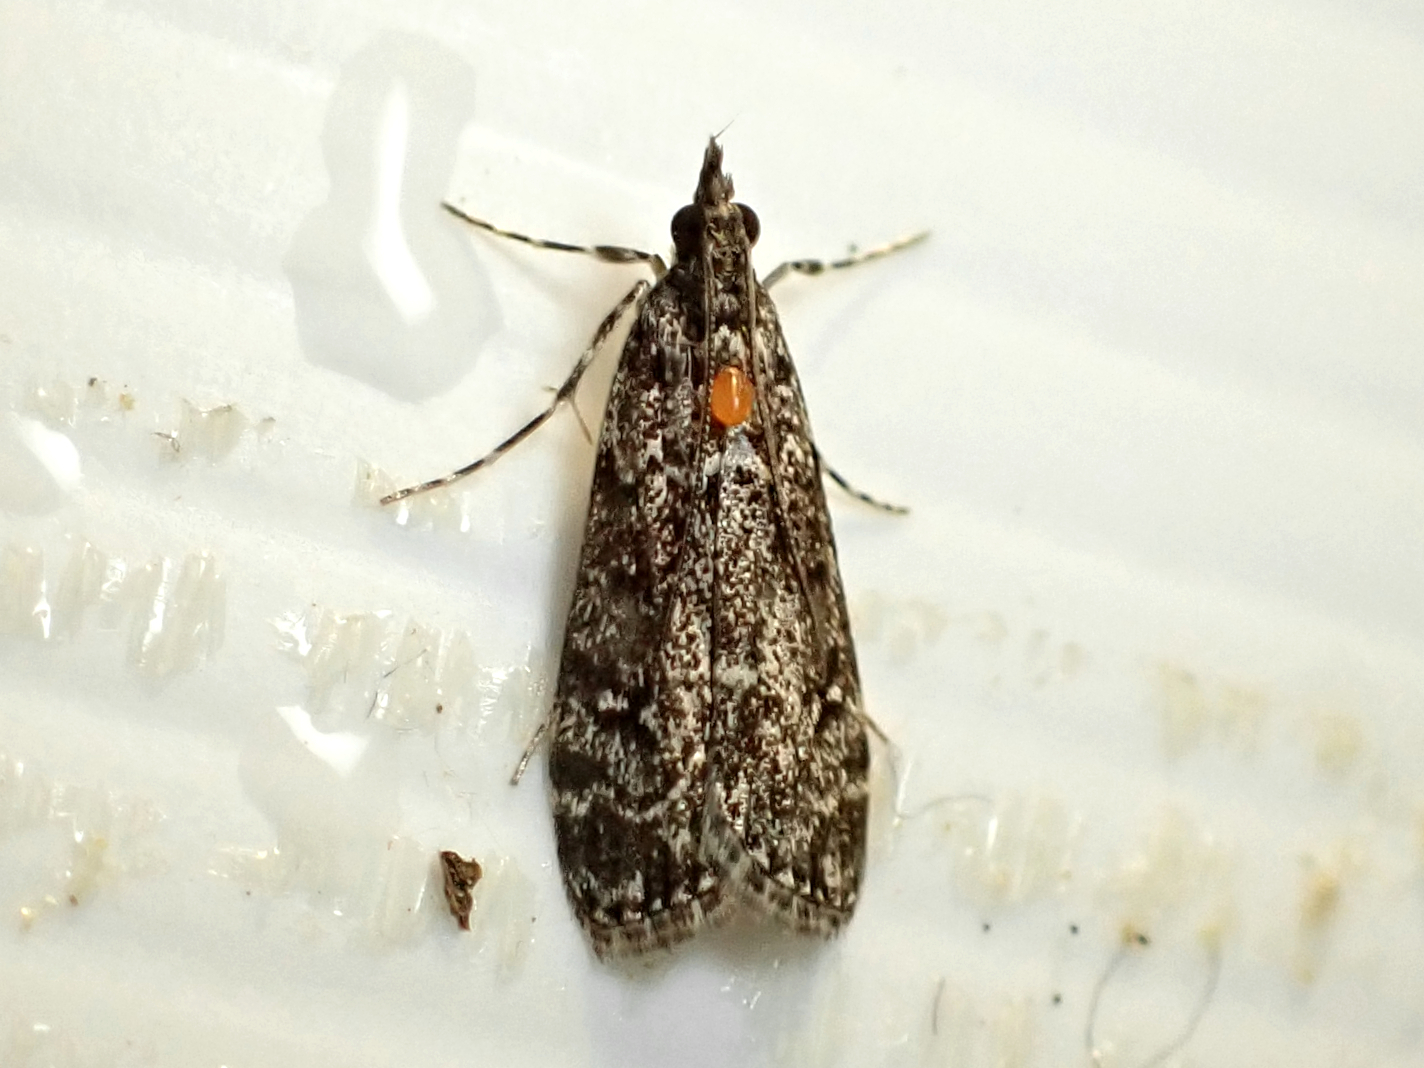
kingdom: Animalia
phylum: Arthropoda
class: Insecta
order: Lepidoptera
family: Crambidae
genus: Eudonia
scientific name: Eudonia philerga
